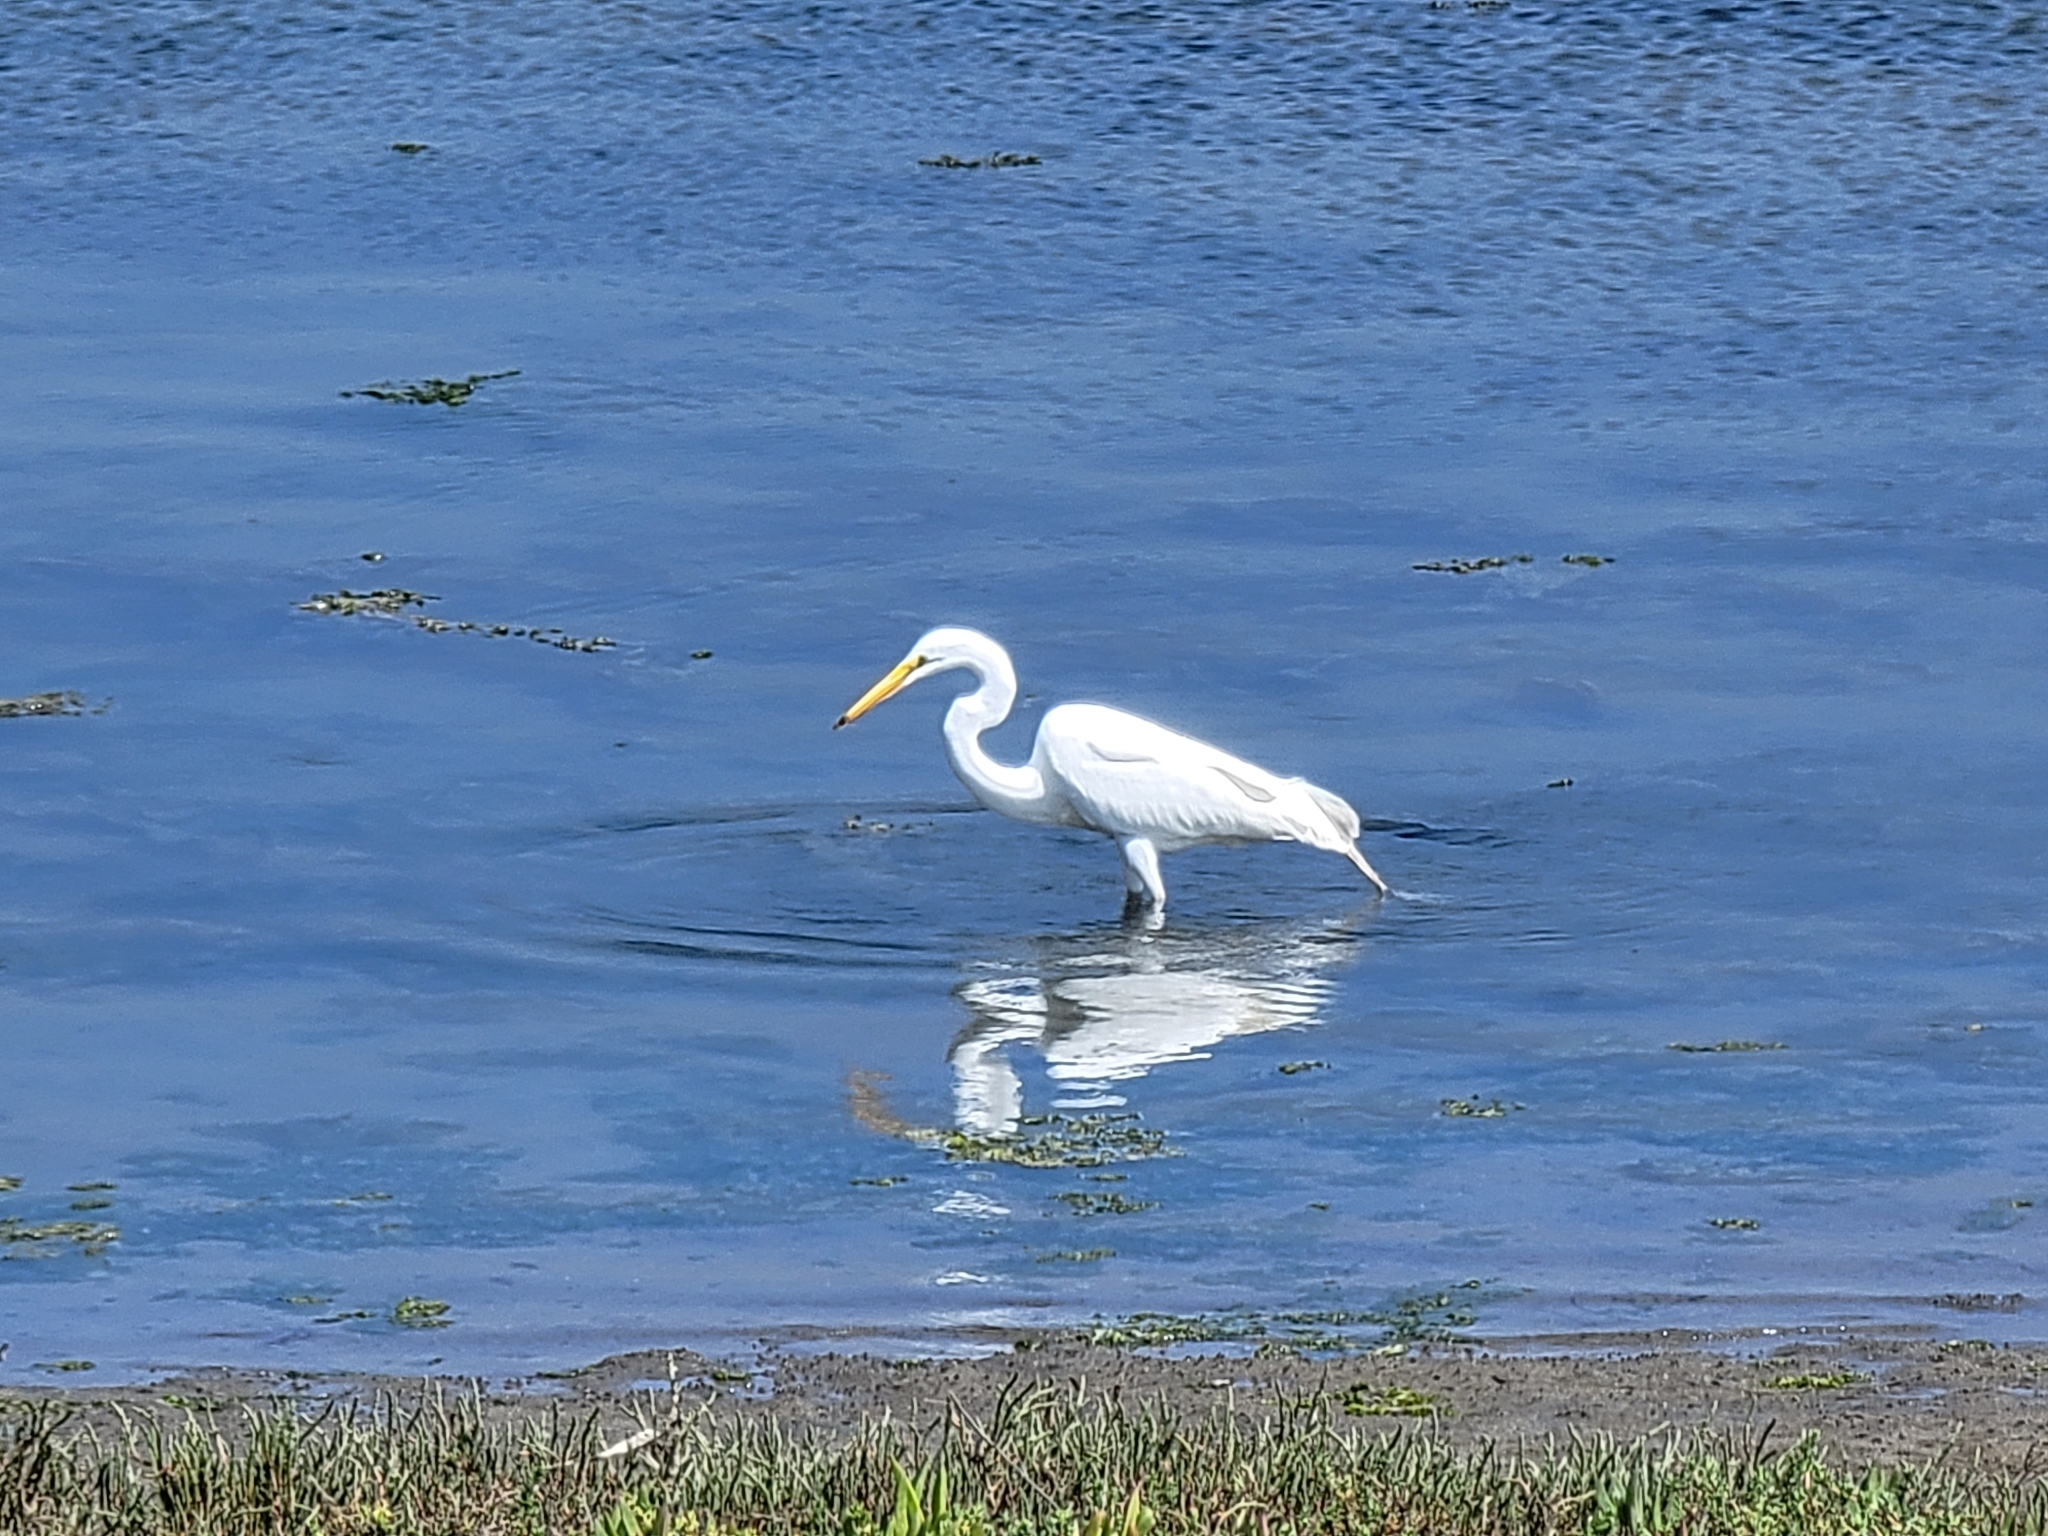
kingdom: Animalia
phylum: Chordata
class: Aves
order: Pelecaniformes
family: Ardeidae
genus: Ardea
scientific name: Ardea alba
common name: Great egret
